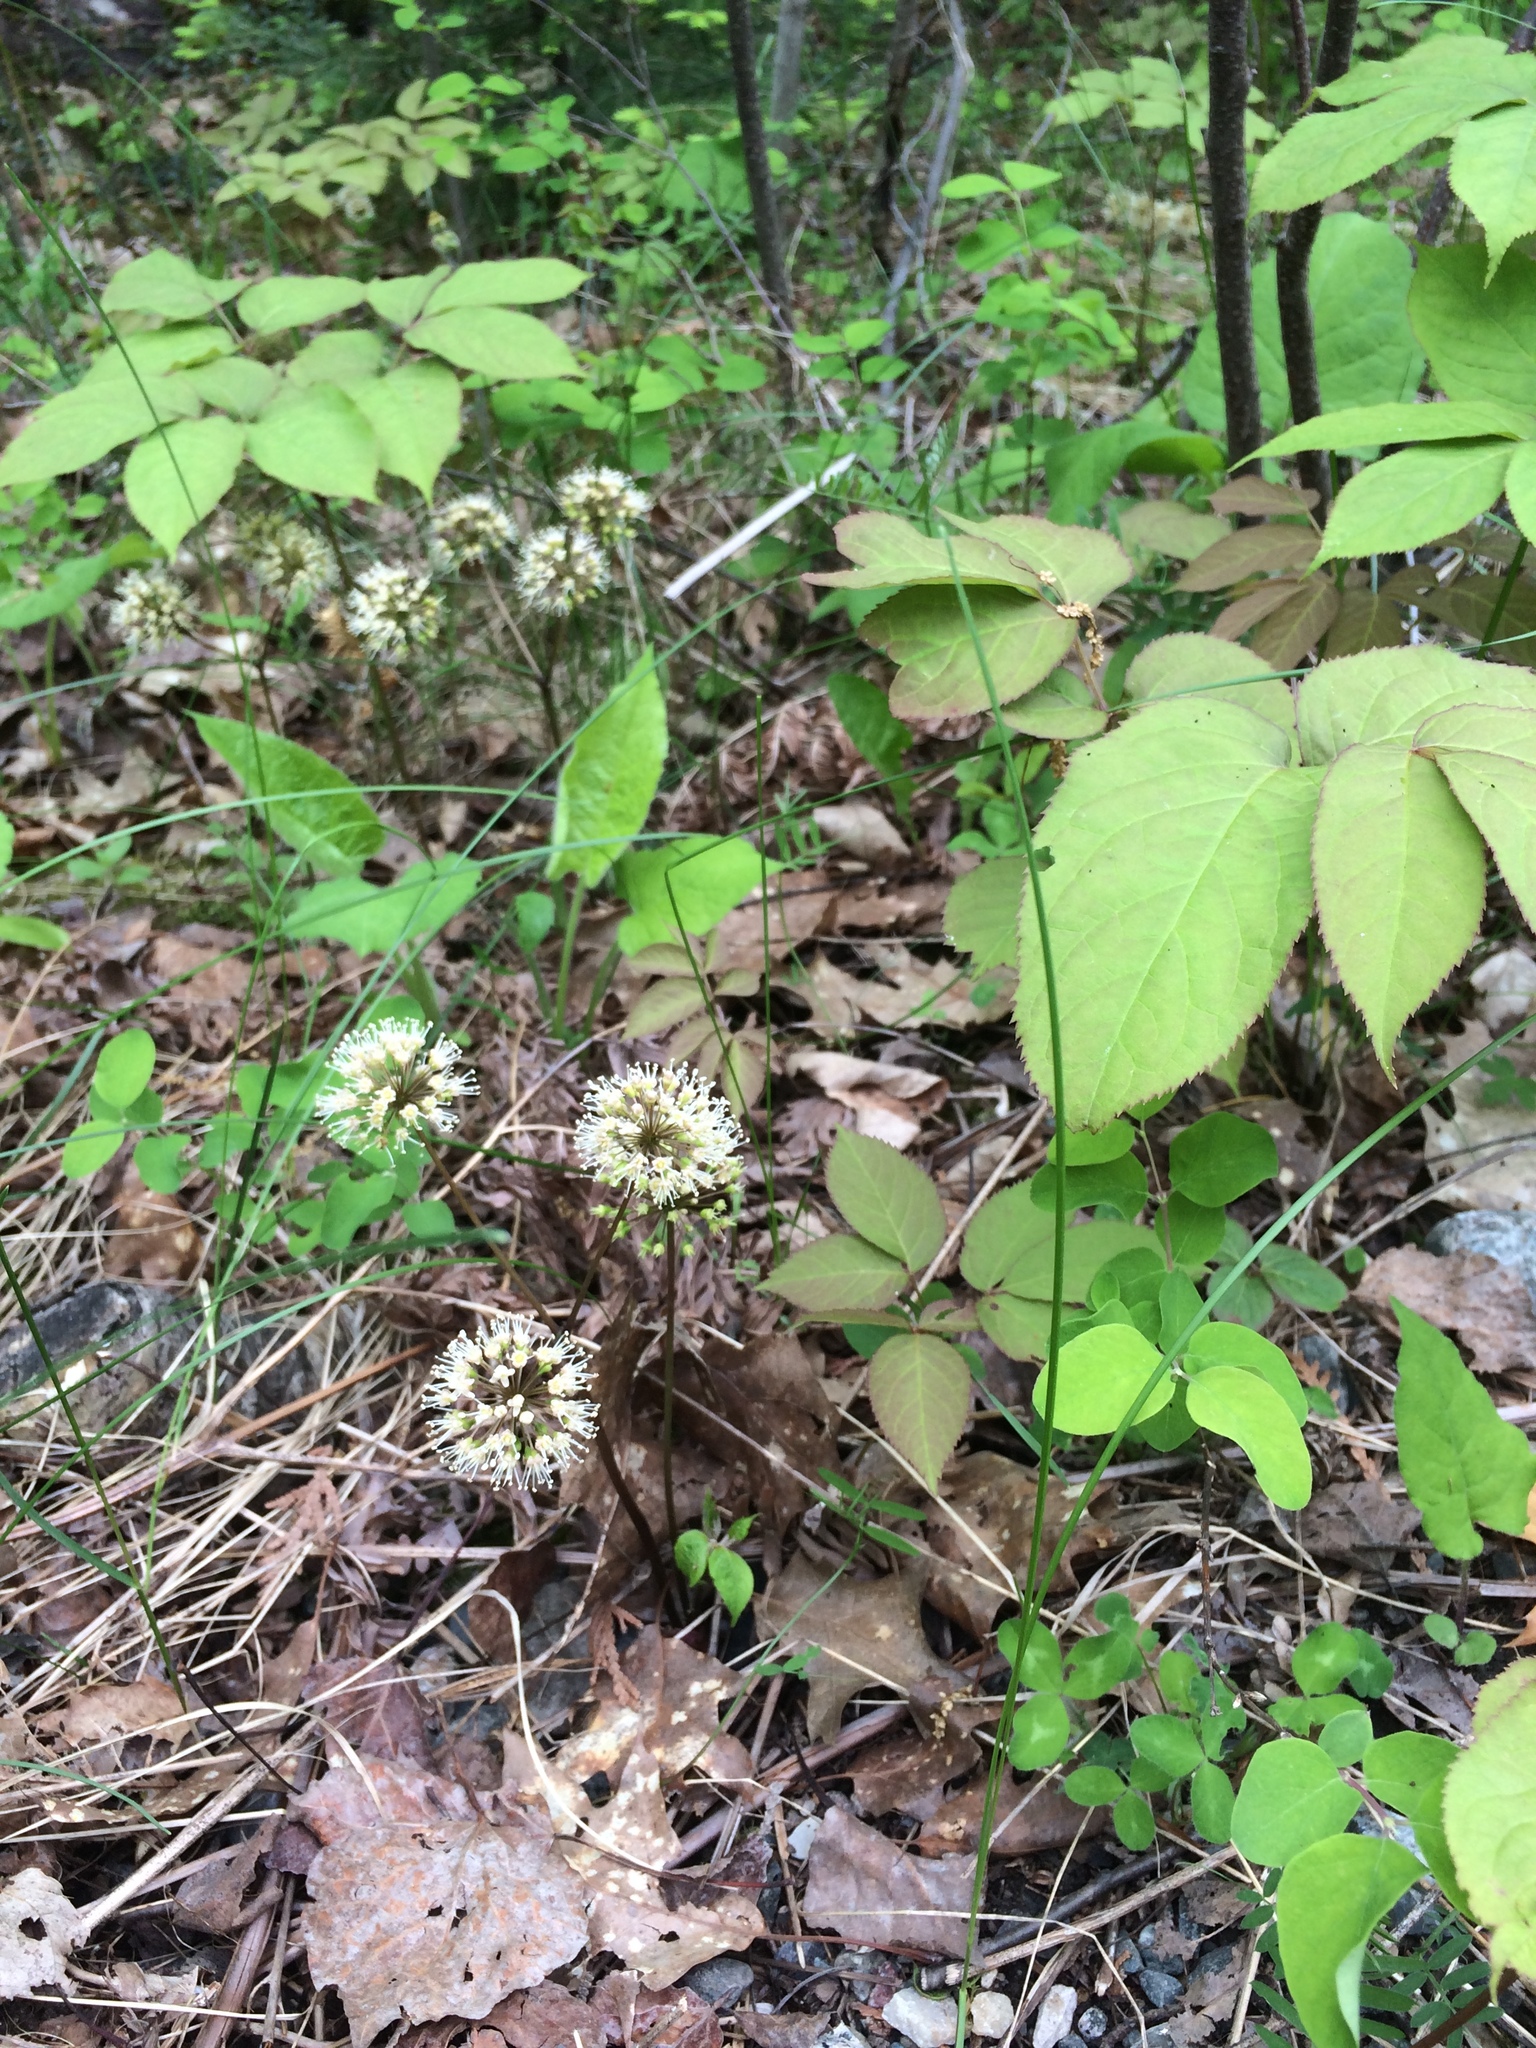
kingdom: Plantae
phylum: Tracheophyta
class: Magnoliopsida
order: Apiales
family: Araliaceae
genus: Aralia
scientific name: Aralia nudicaulis
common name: Wild sarsaparilla
